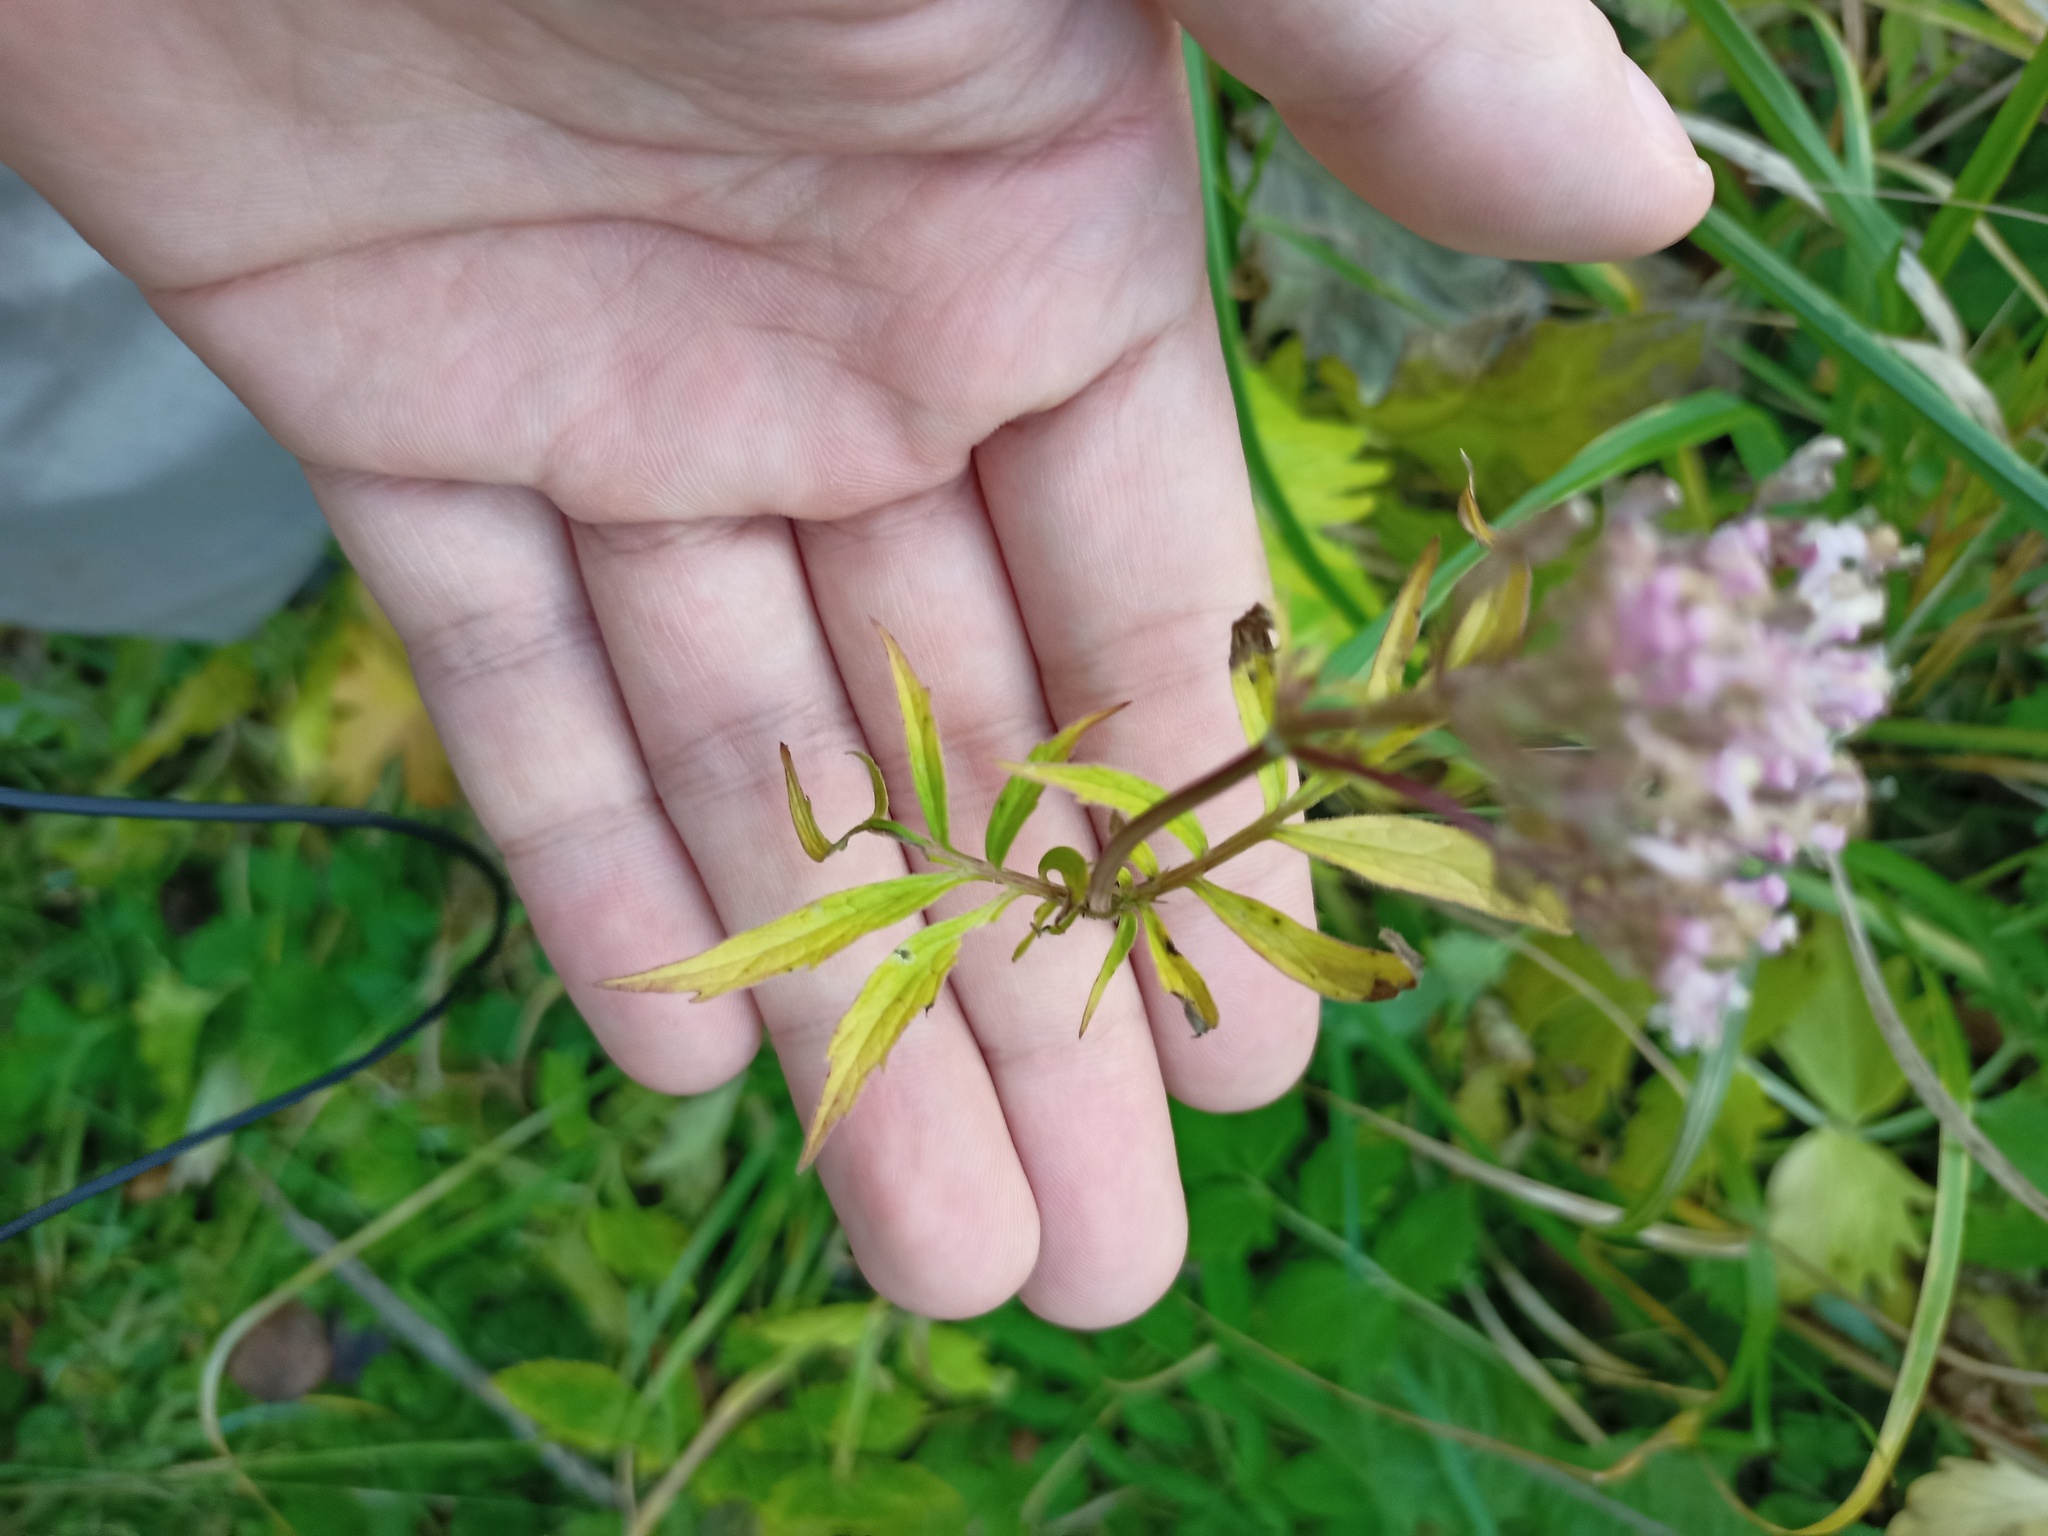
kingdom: Plantae
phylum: Tracheophyta
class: Magnoliopsida
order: Dipsacales
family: Caprifoliaceae
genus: Valeriana
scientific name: Valeriana officinalis
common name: Common valerian
